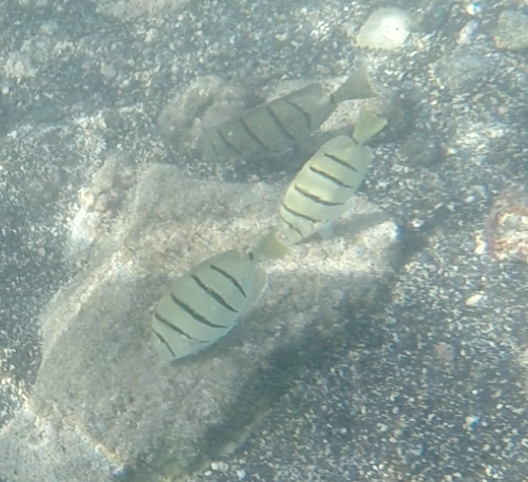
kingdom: Animalia
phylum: Chordata
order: Perciformes
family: Acanthuridae
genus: Acanthurus
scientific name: Acanthurus triostegus
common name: Convict surgeonfish
